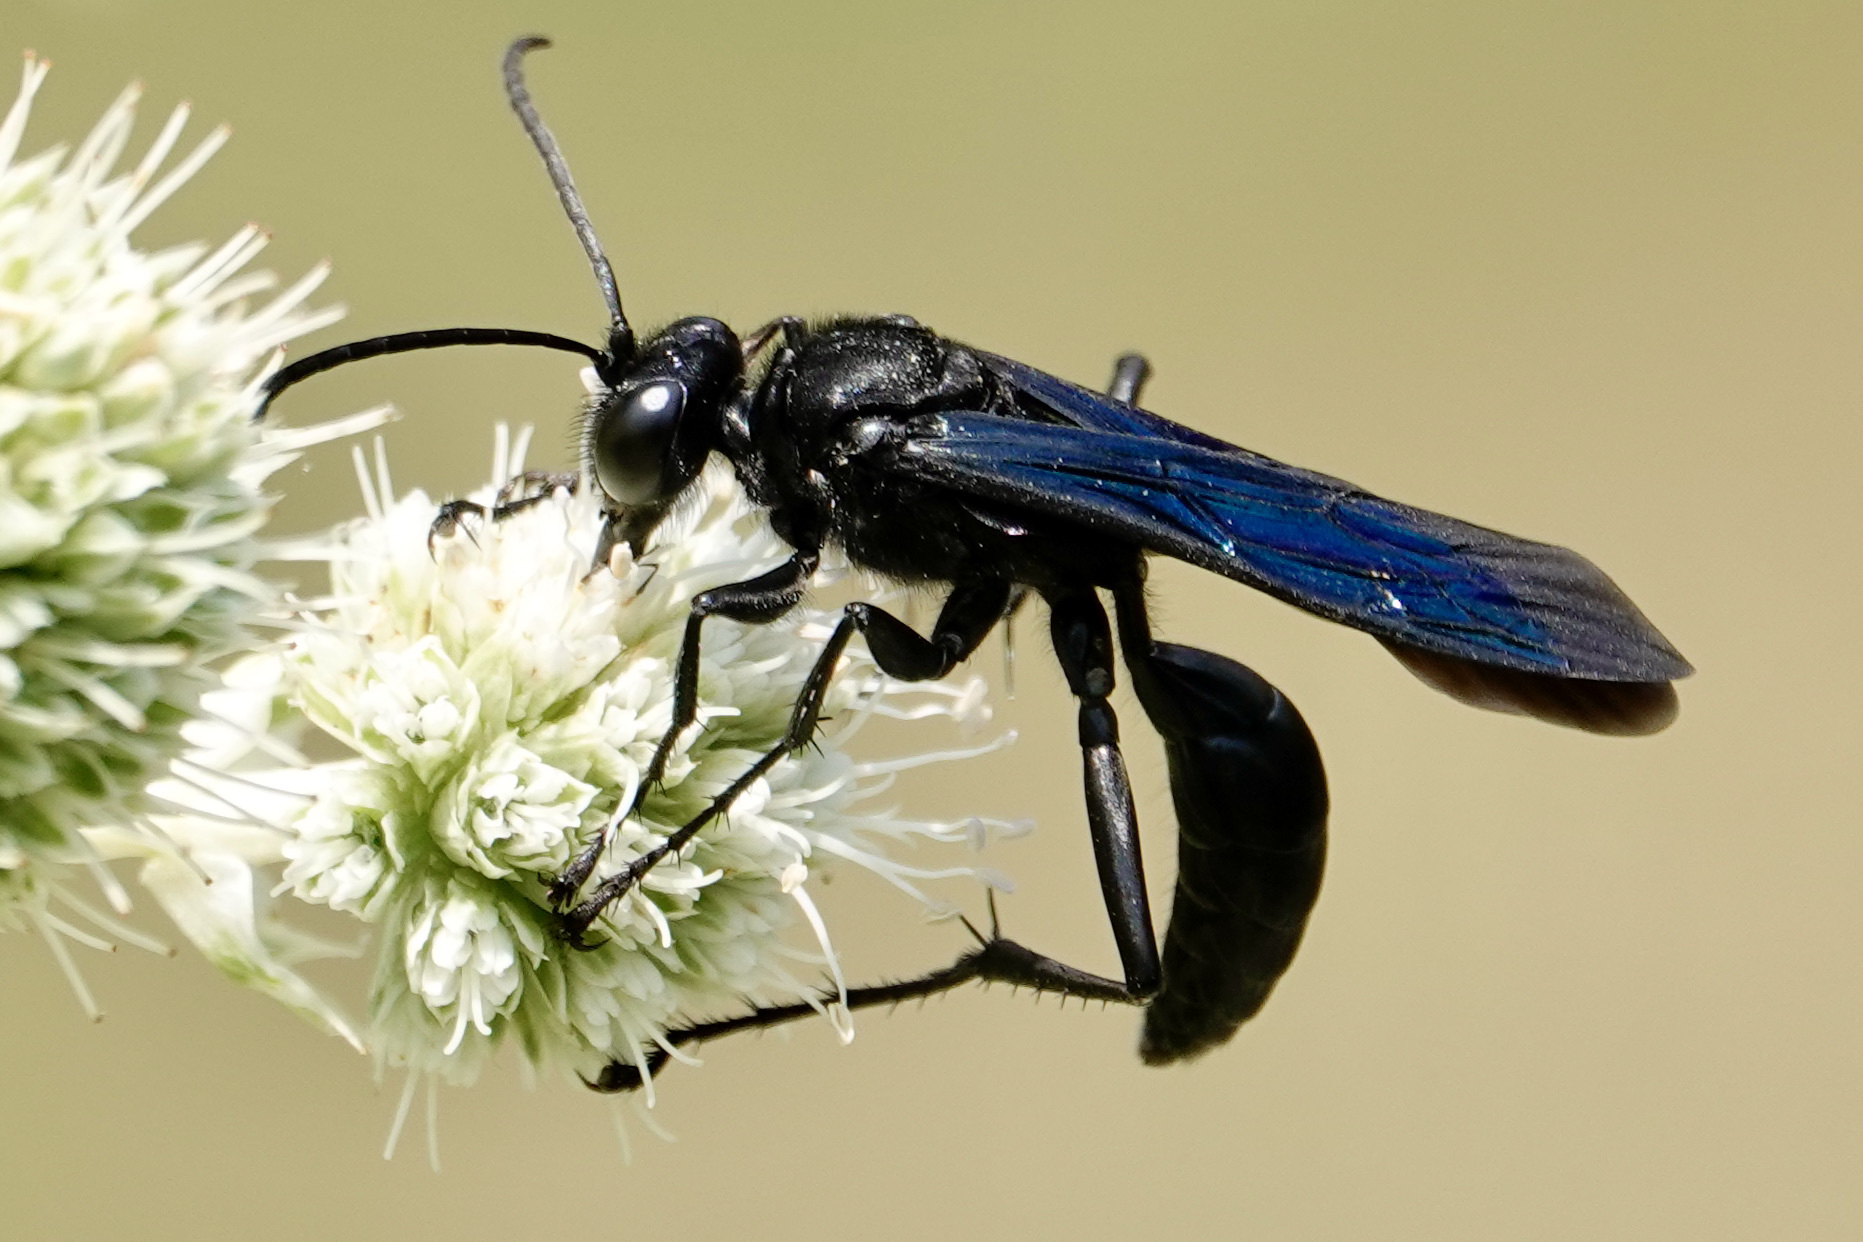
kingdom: Animalia
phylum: Arthropoda
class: Insecta
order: Hymenoptera
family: Sphecidae
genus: Sphex
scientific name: Sphex pensylvanicus
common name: Great black digger wasp
